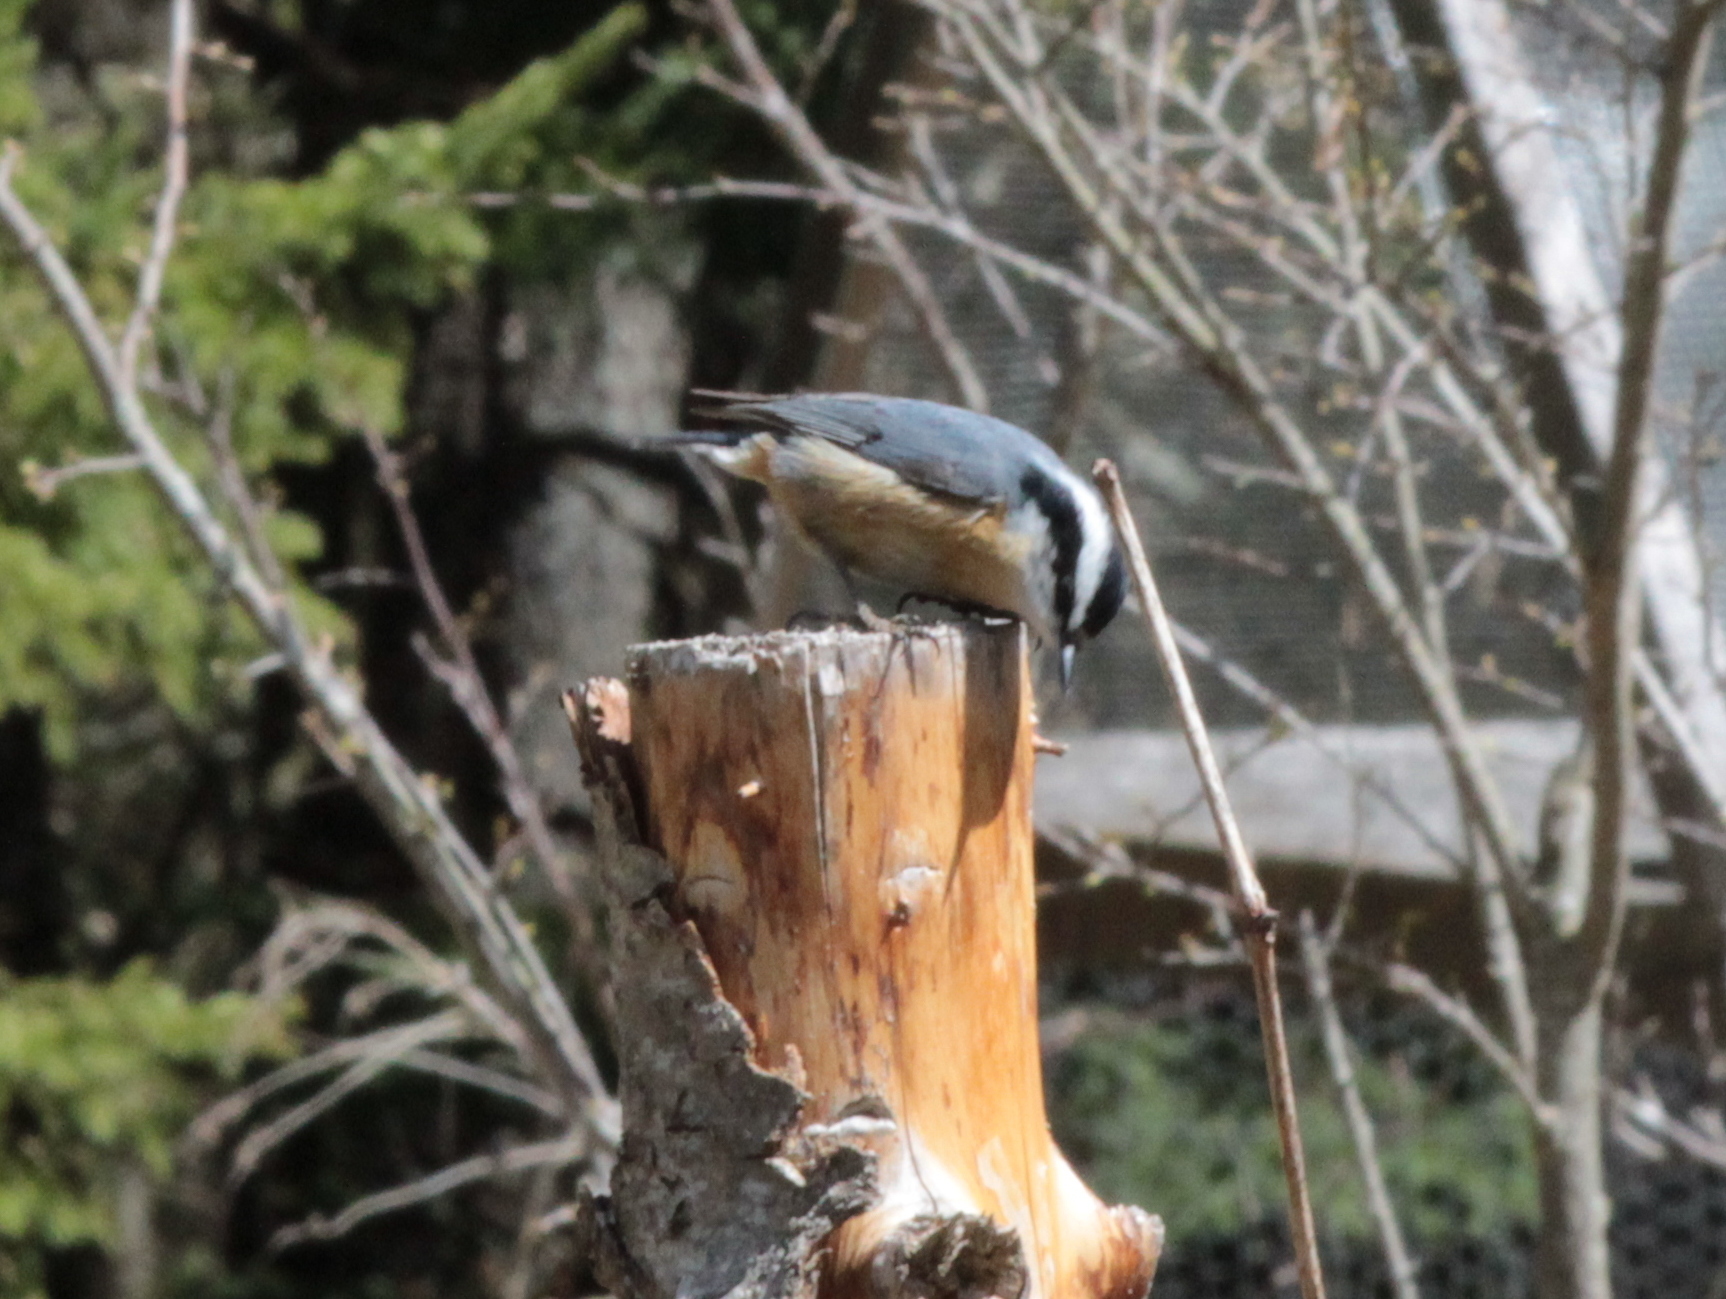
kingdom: Animalia
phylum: Chordata
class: Aves
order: Passeriformes
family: Sittidae
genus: Sitta
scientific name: Sitta canadensis
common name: Red-breasted nuthatch
